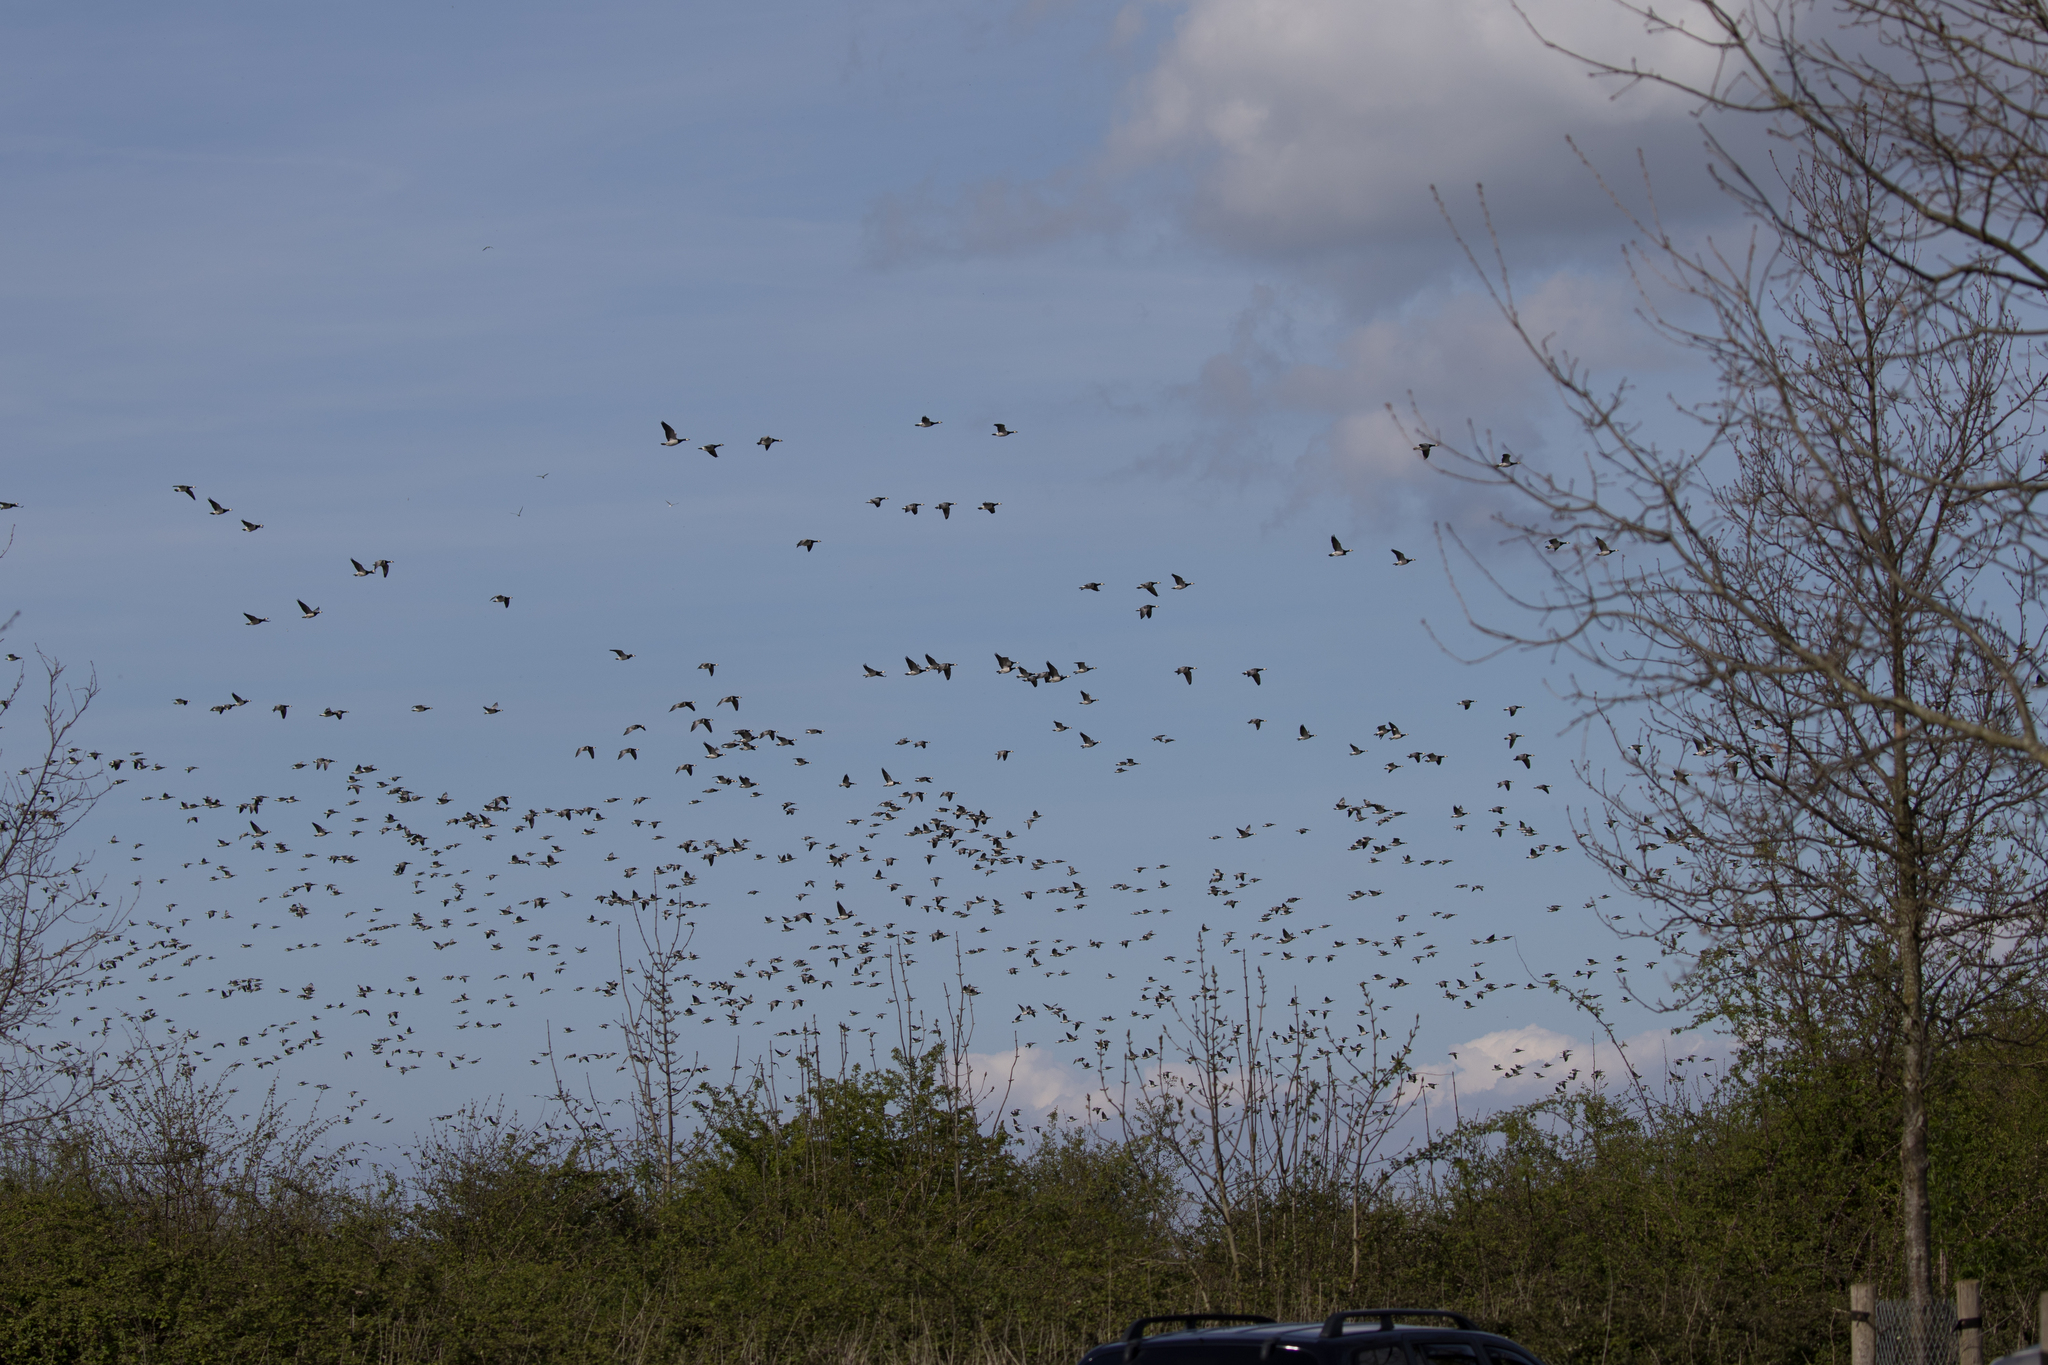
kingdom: Animalia
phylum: Chordata
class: Aves
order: Anseriformes
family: Anatidae
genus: Branta
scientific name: Branta leucopsis
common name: Barnacle goose
